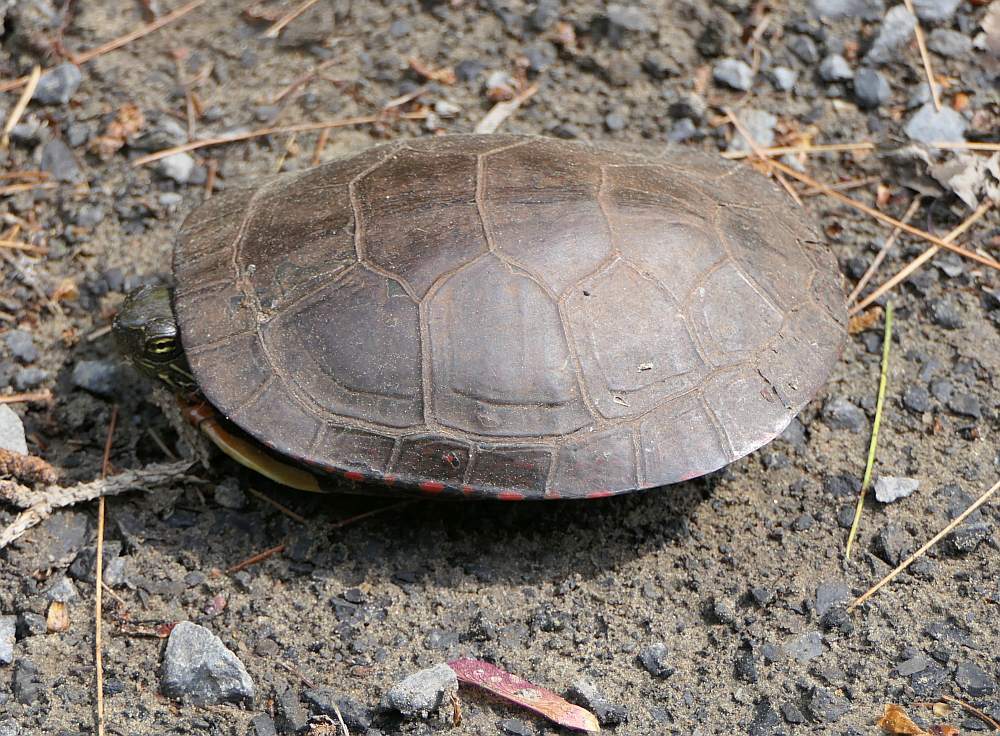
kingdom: Animalia
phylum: Chordata
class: Testudines
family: Emydidae
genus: Chrysemys
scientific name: Chrysemys picta
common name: Painted turtle
